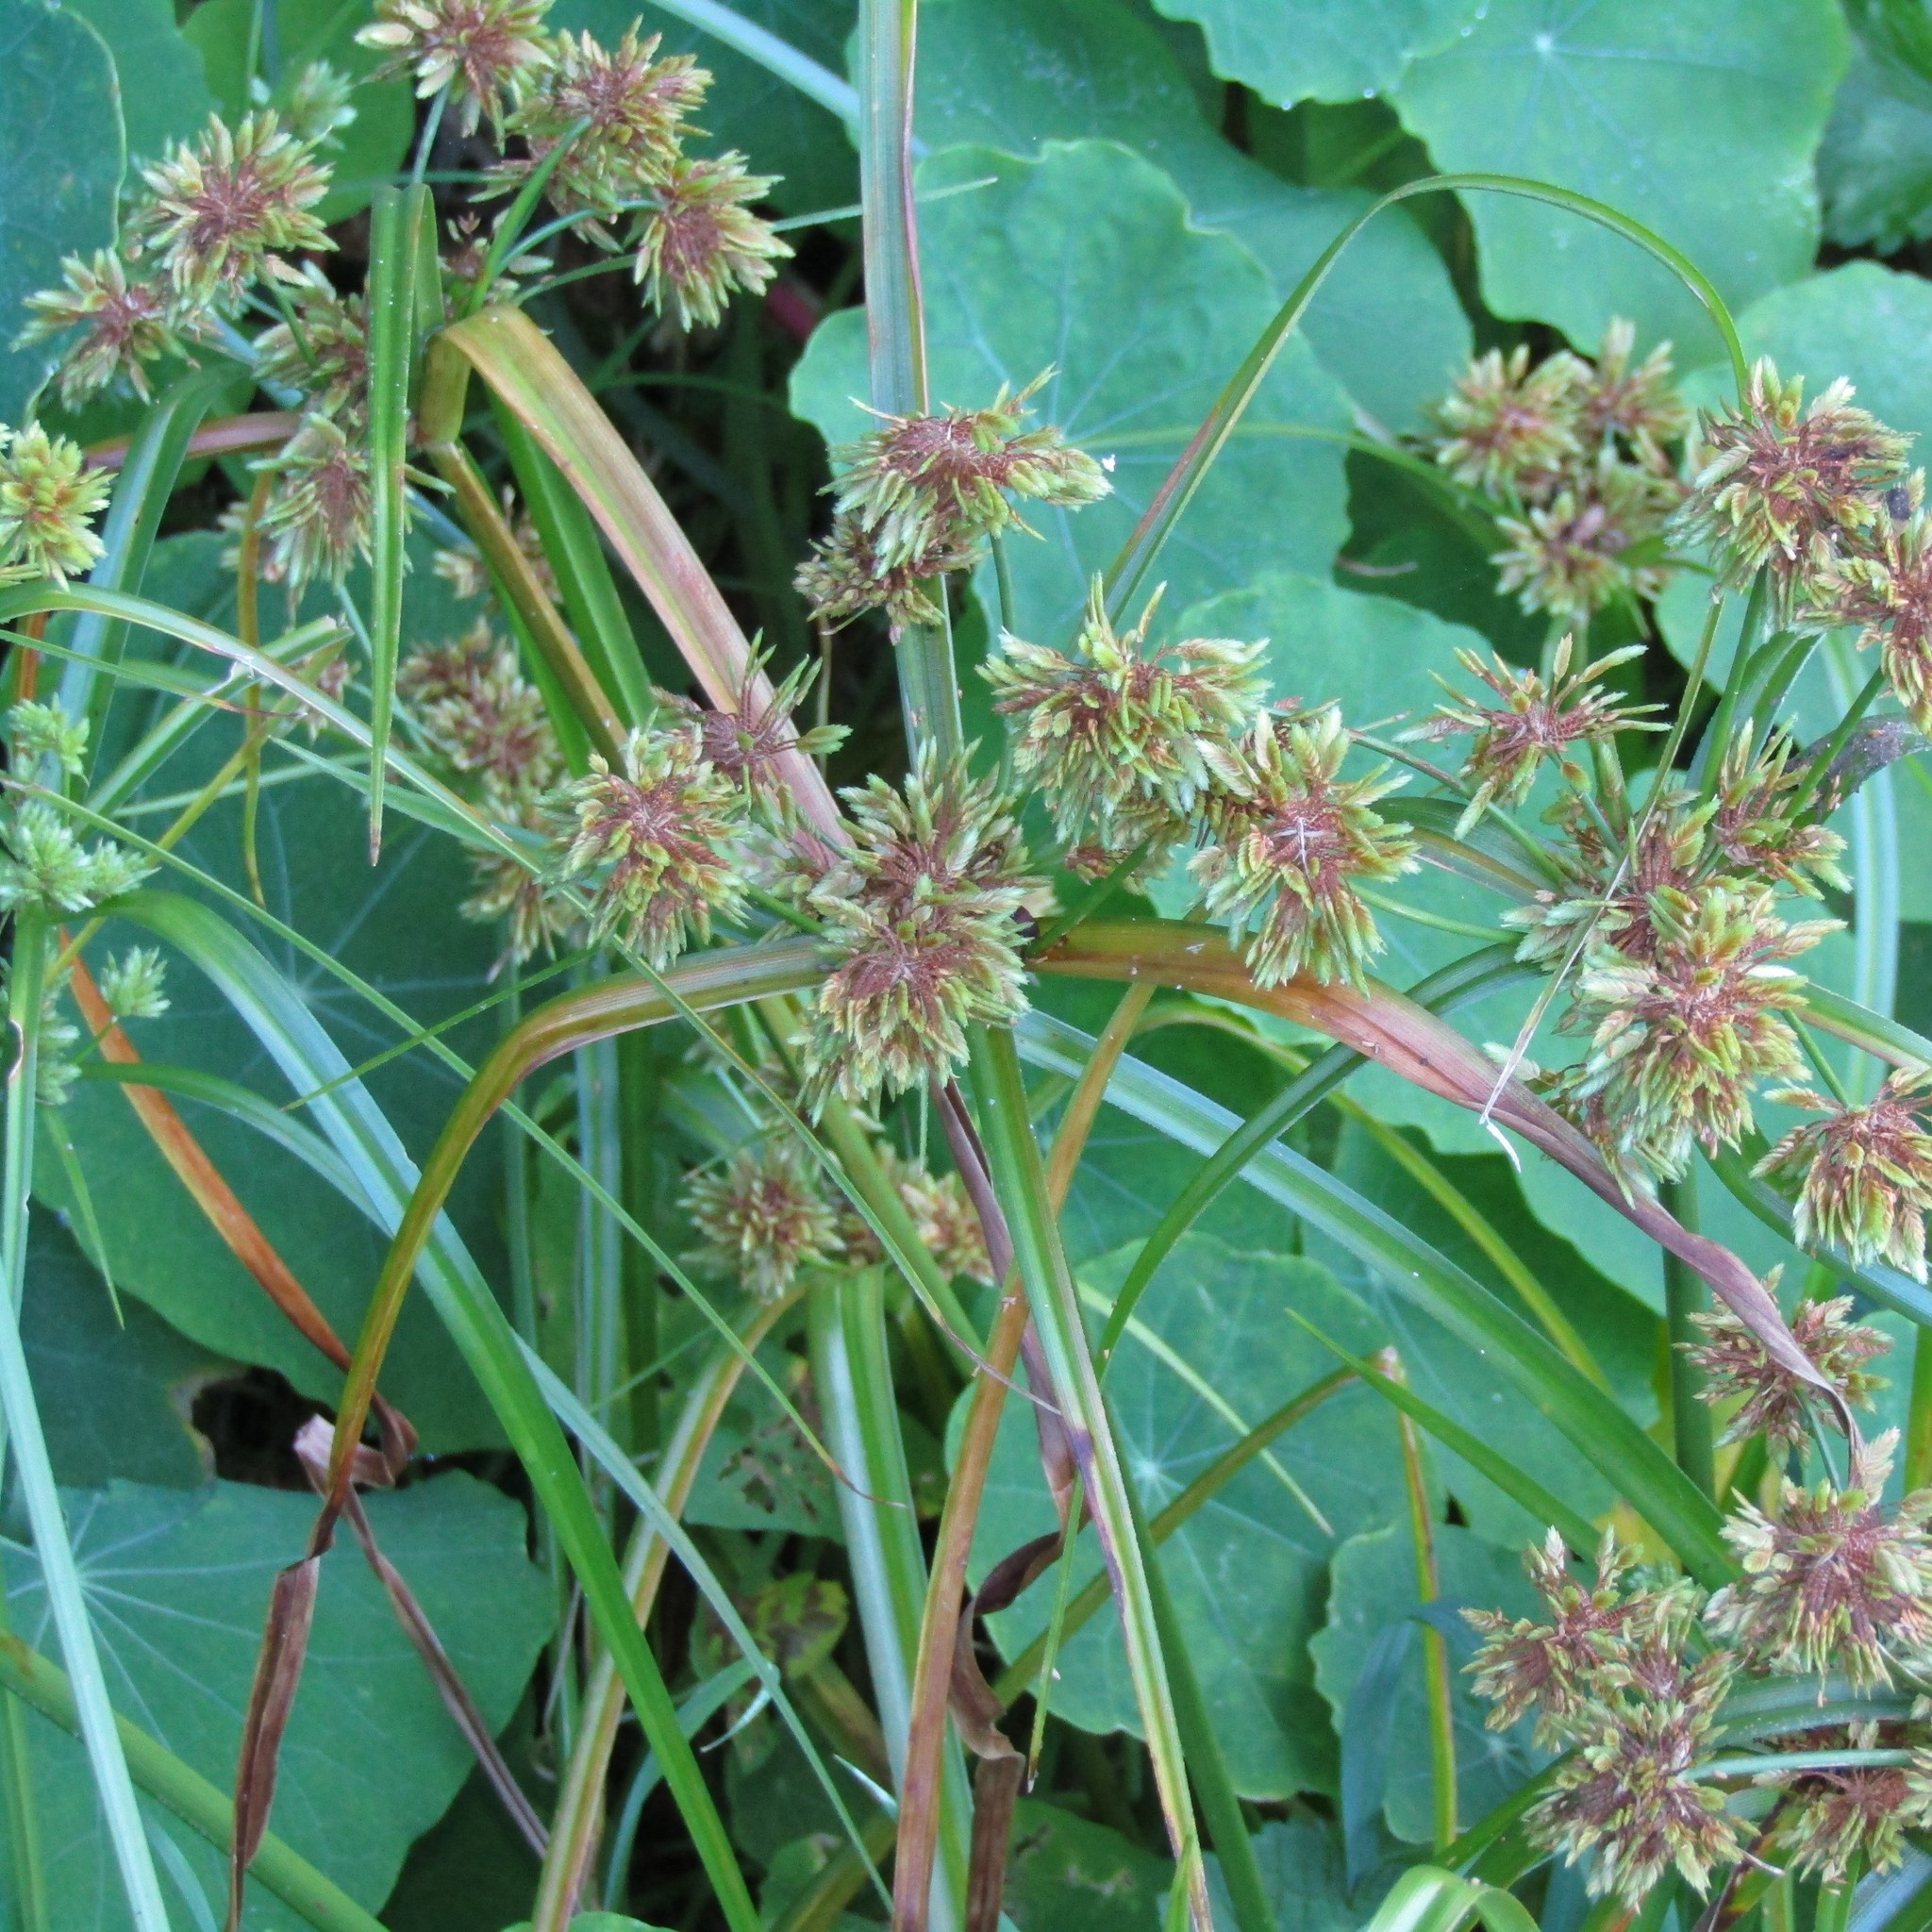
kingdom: Plantae
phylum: Tracheophyta
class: Liliopsida
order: Poales
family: Cyperaceae
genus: Cyperus
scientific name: Cyperus eragrostis
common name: Tall flatsedge
